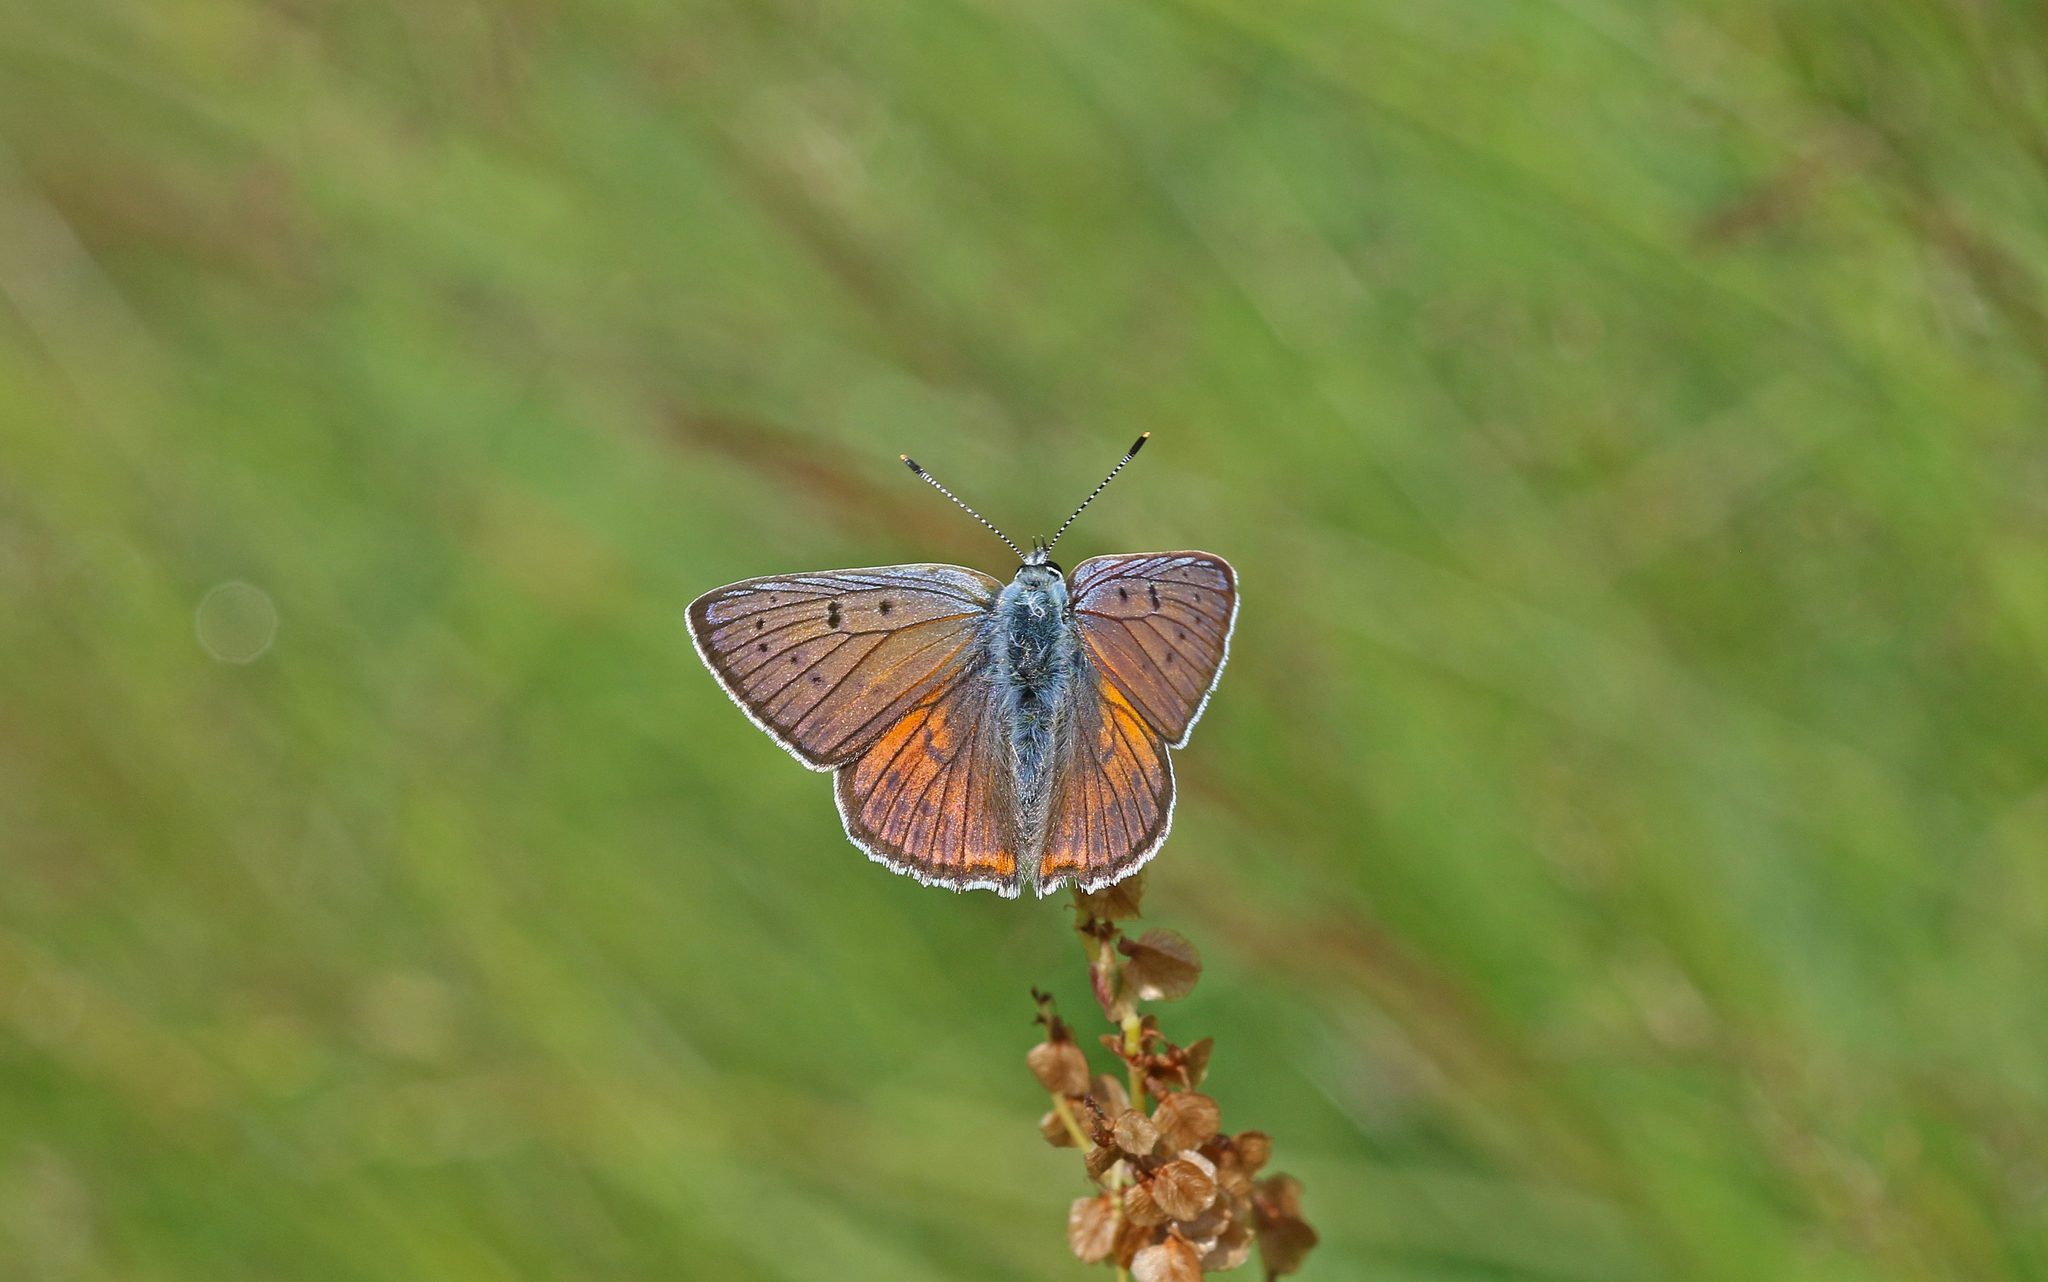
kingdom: Animalia
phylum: Arthropoda
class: Insecta
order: Lepidoptera
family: Lycaenidae
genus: Lycaena
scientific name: Lycaena alciphron
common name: Purple-shot copper
